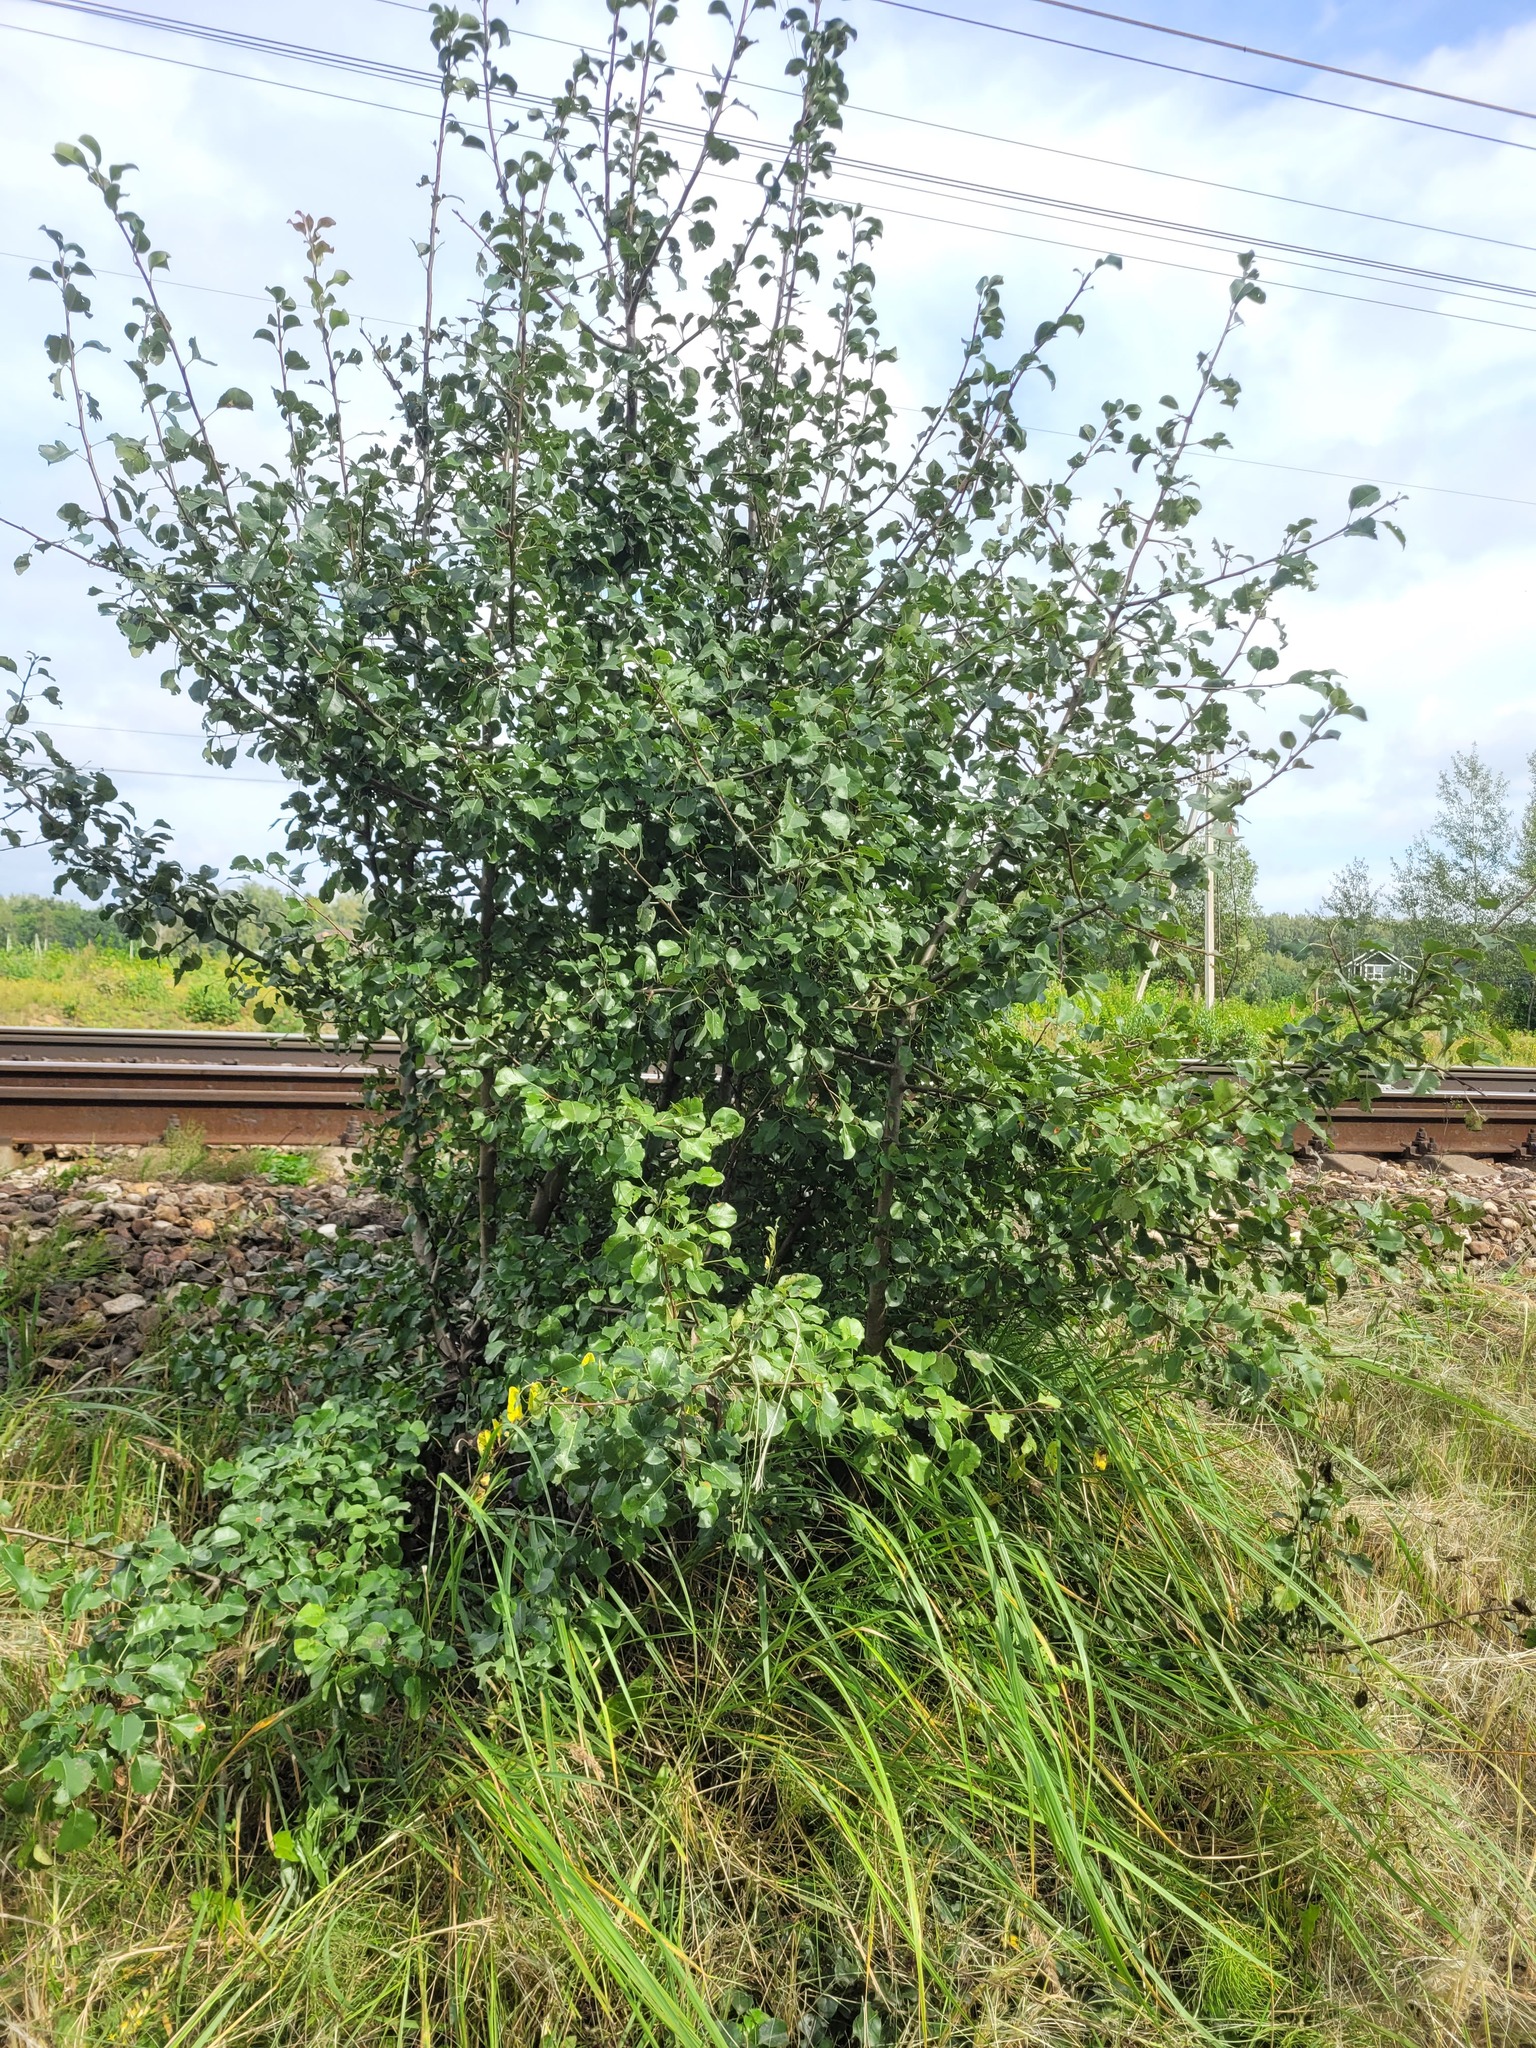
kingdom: Plantae
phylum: Tracheophyta
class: Magnoliopsida
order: Rosales
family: Rosaceae
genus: Pyrus
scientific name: Pyrus communis
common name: Pear
